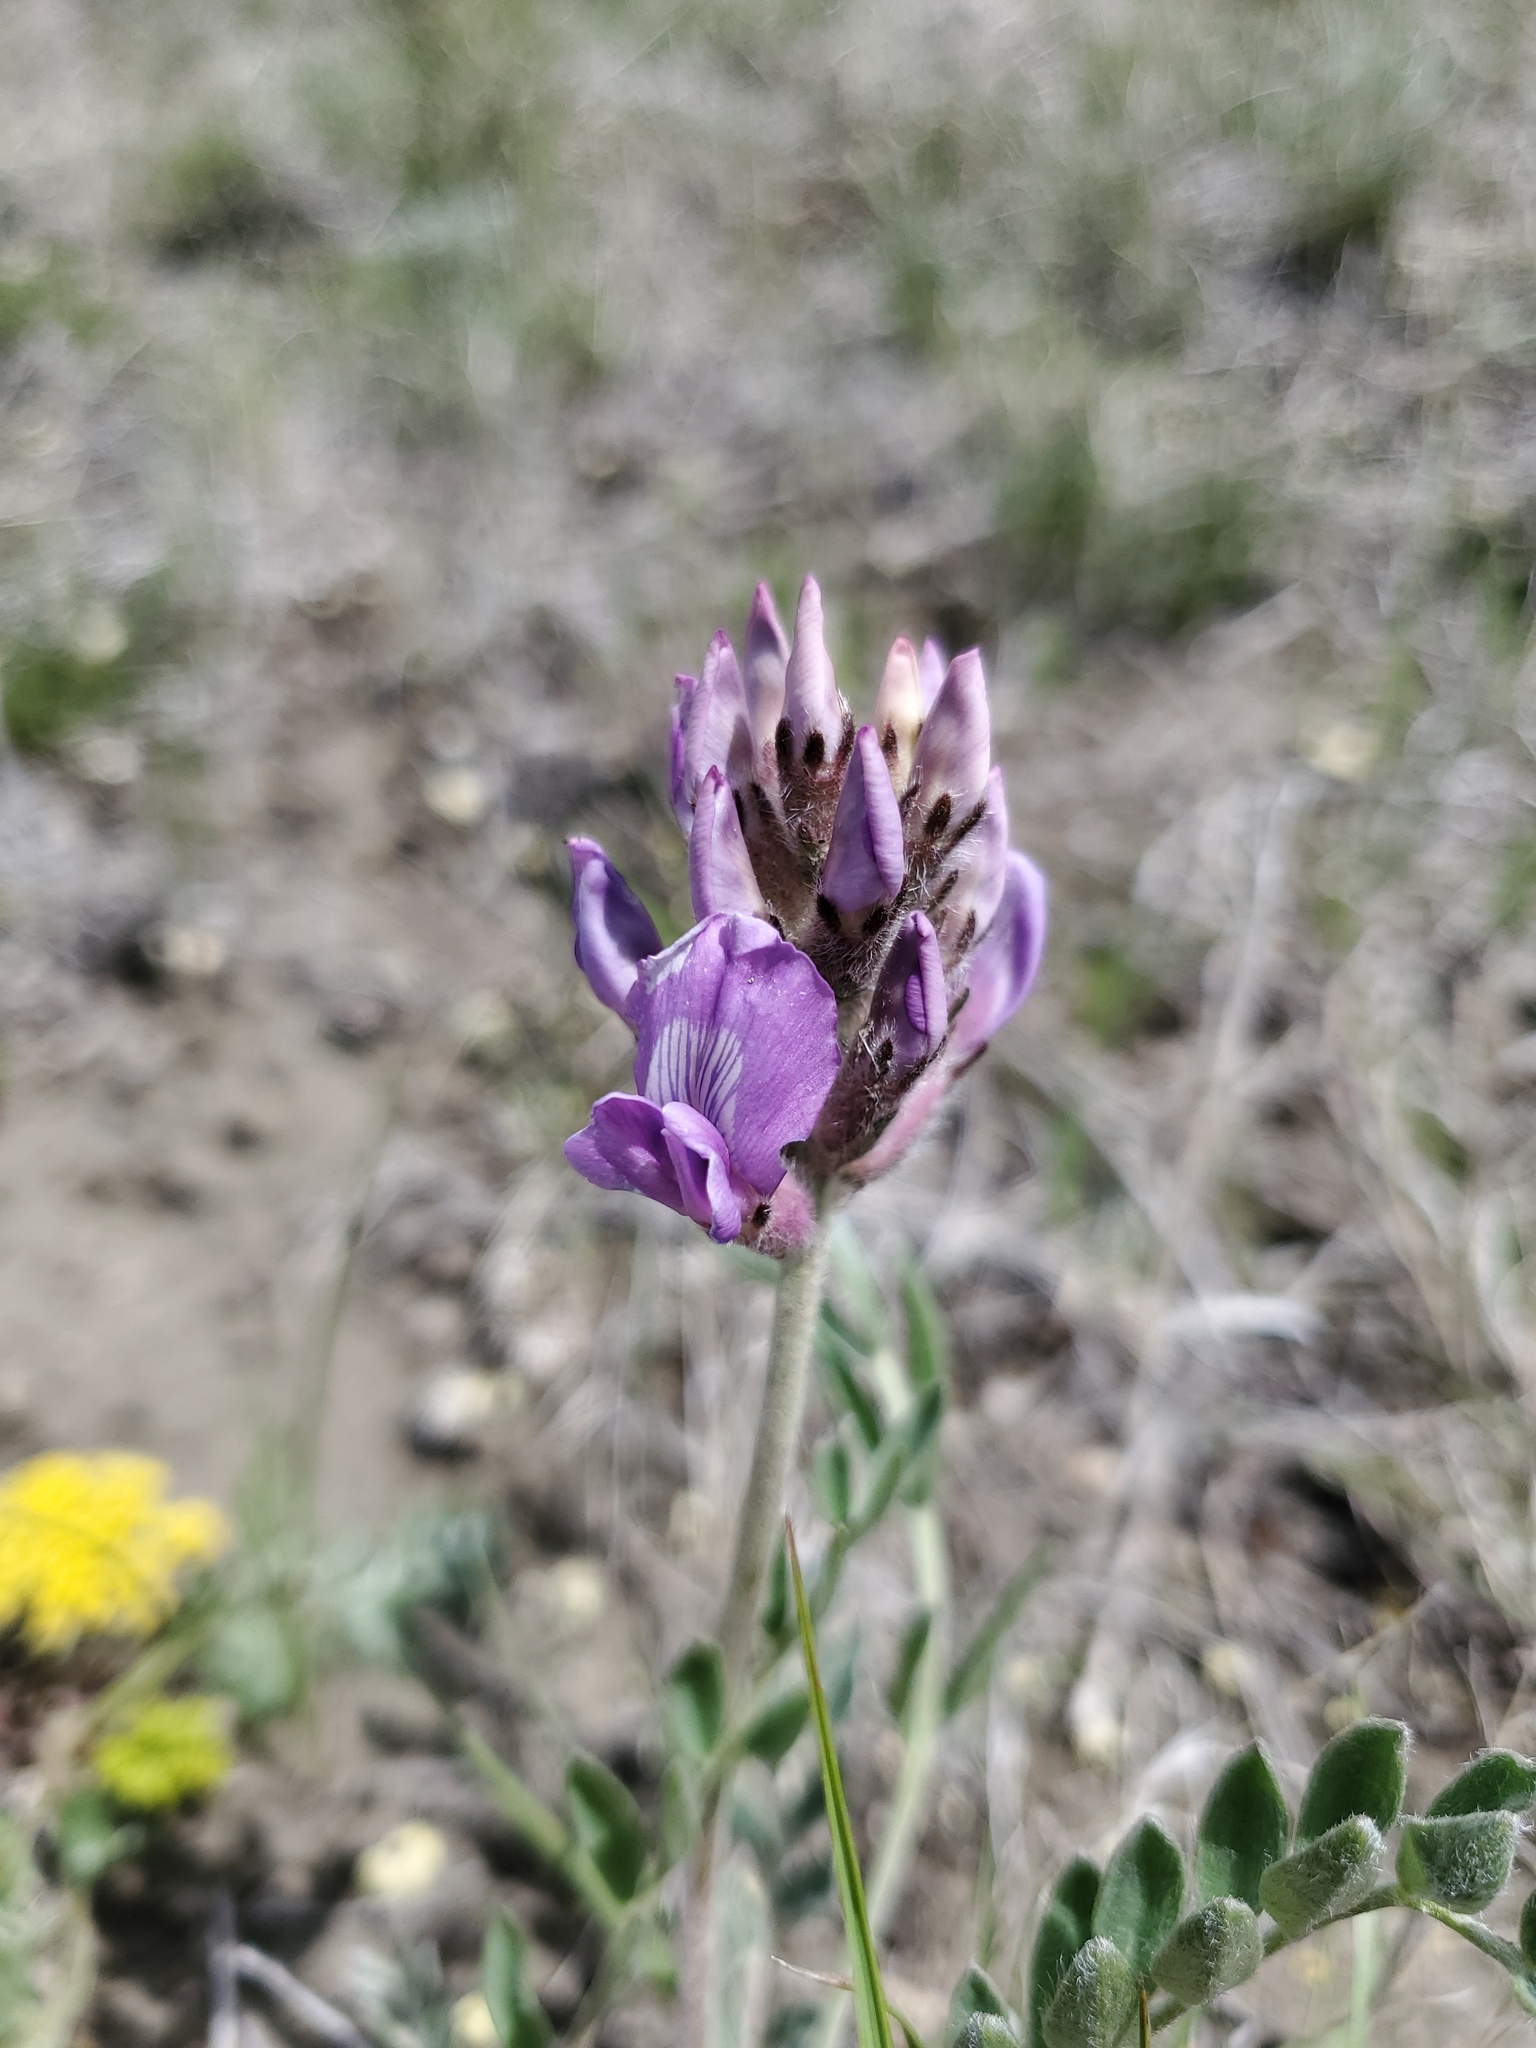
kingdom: Plantae
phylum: Tracheophyta
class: Magnoliopsida
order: Fabales
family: Fabaceae
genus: Oxytropis
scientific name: Oxytropis lambertii
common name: Purple locoweed
